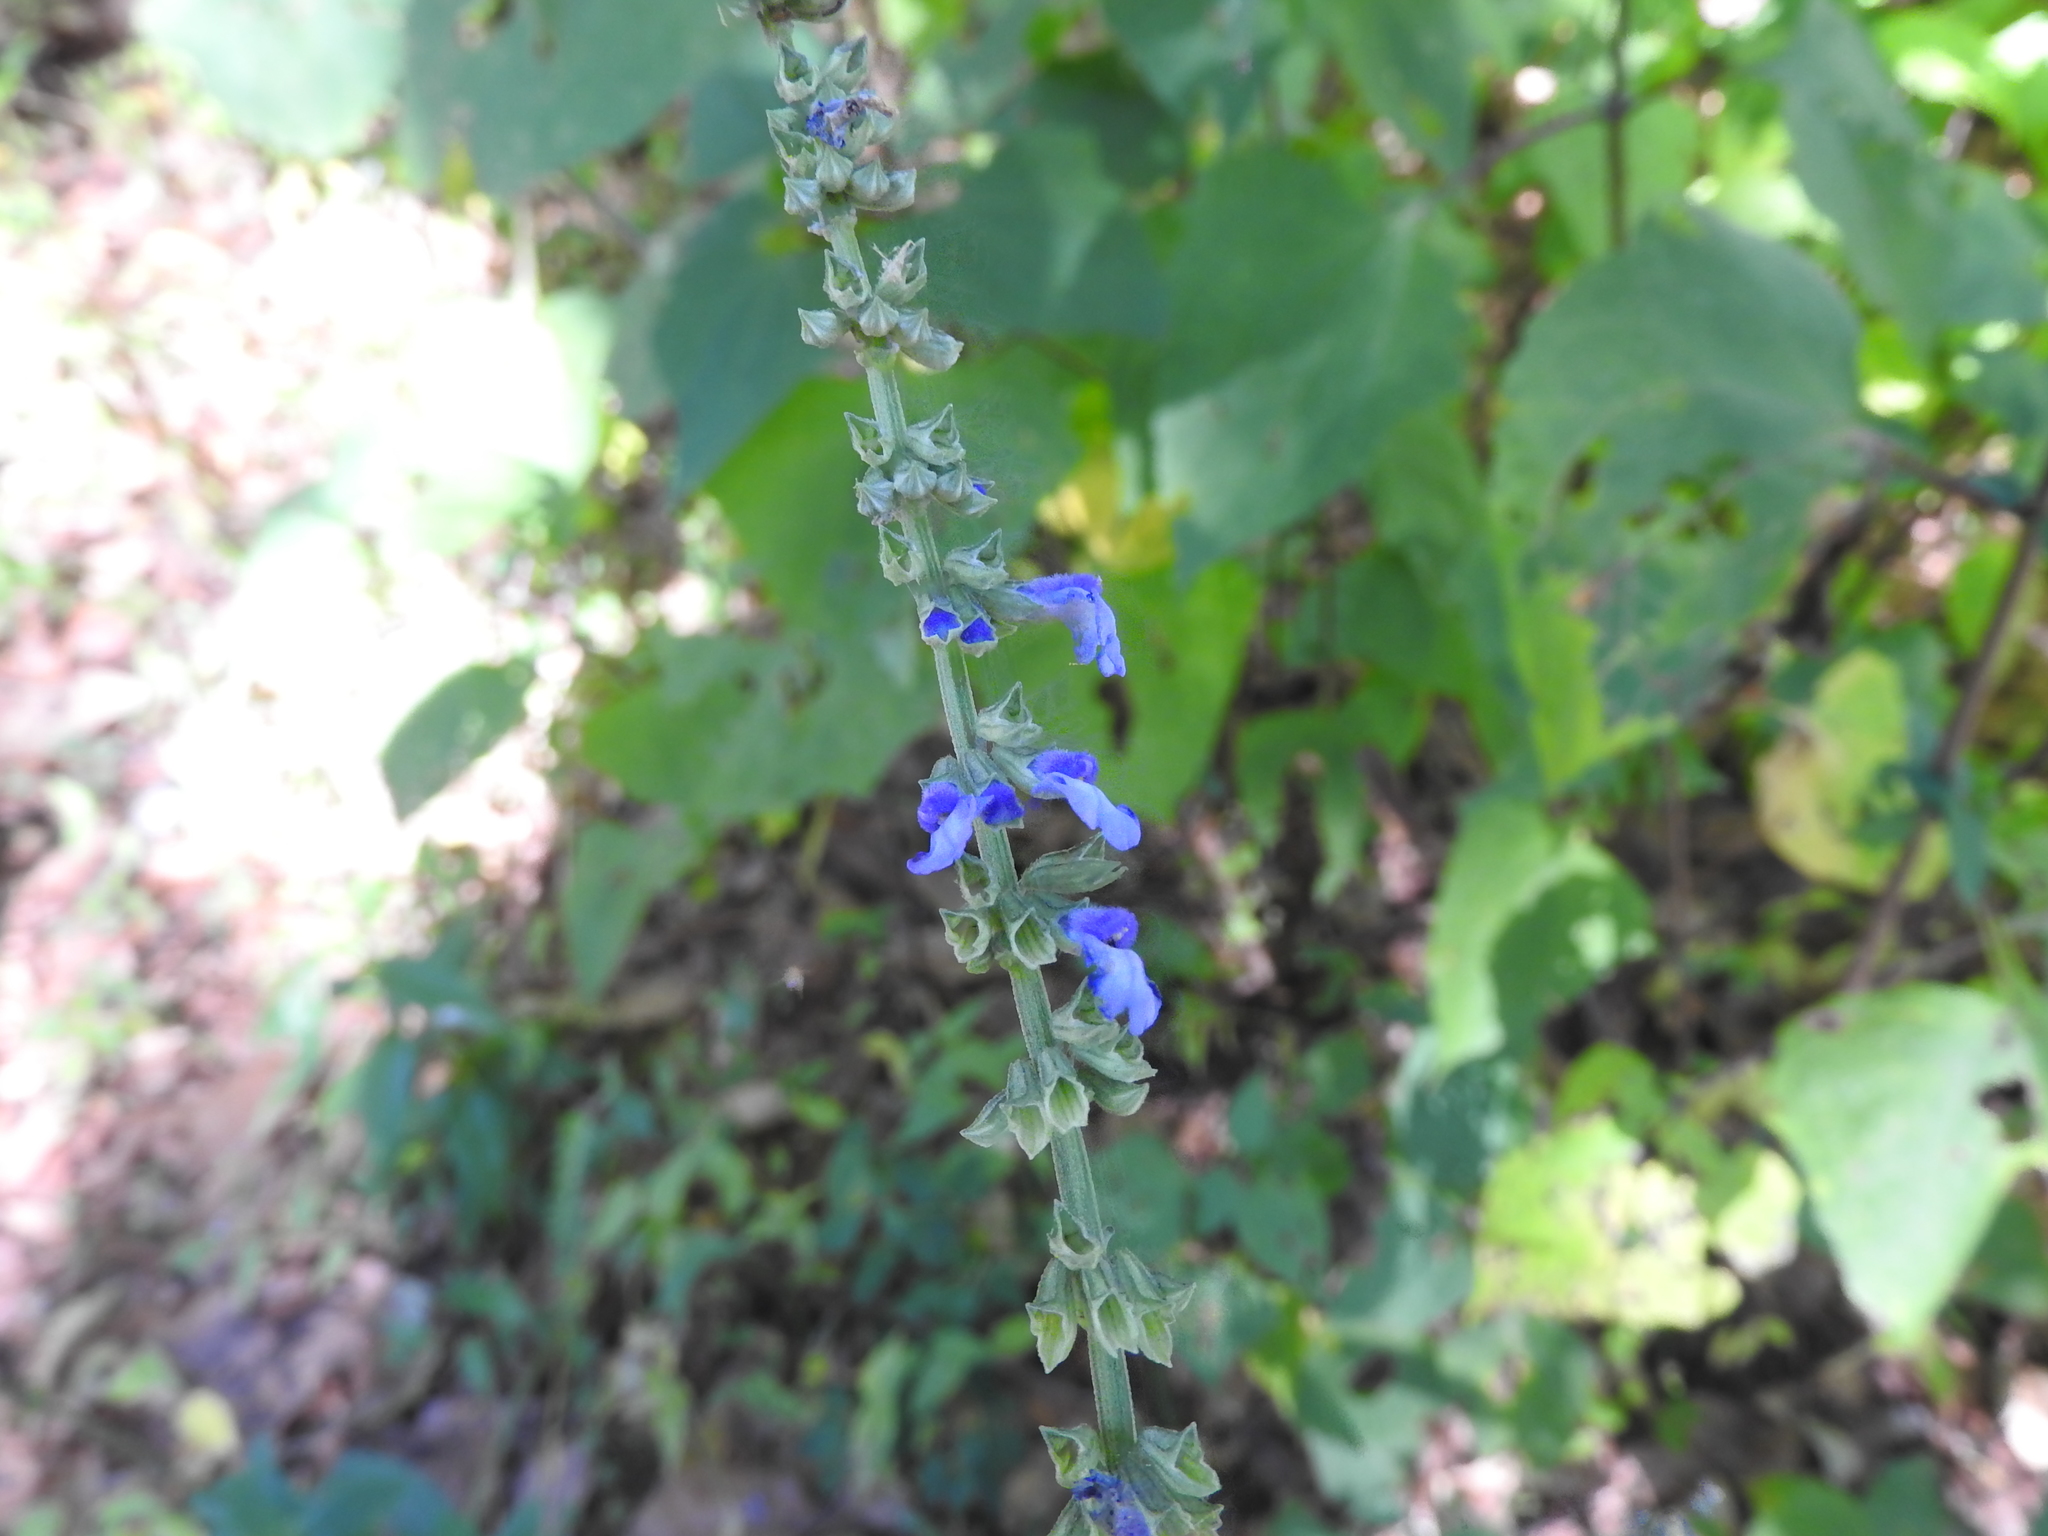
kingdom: Plantae
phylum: Tracheophyta
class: Magnoliopsida
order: Lamiales
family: Lamiaceae
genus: Salvia
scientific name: Salvia helianthemifolia
